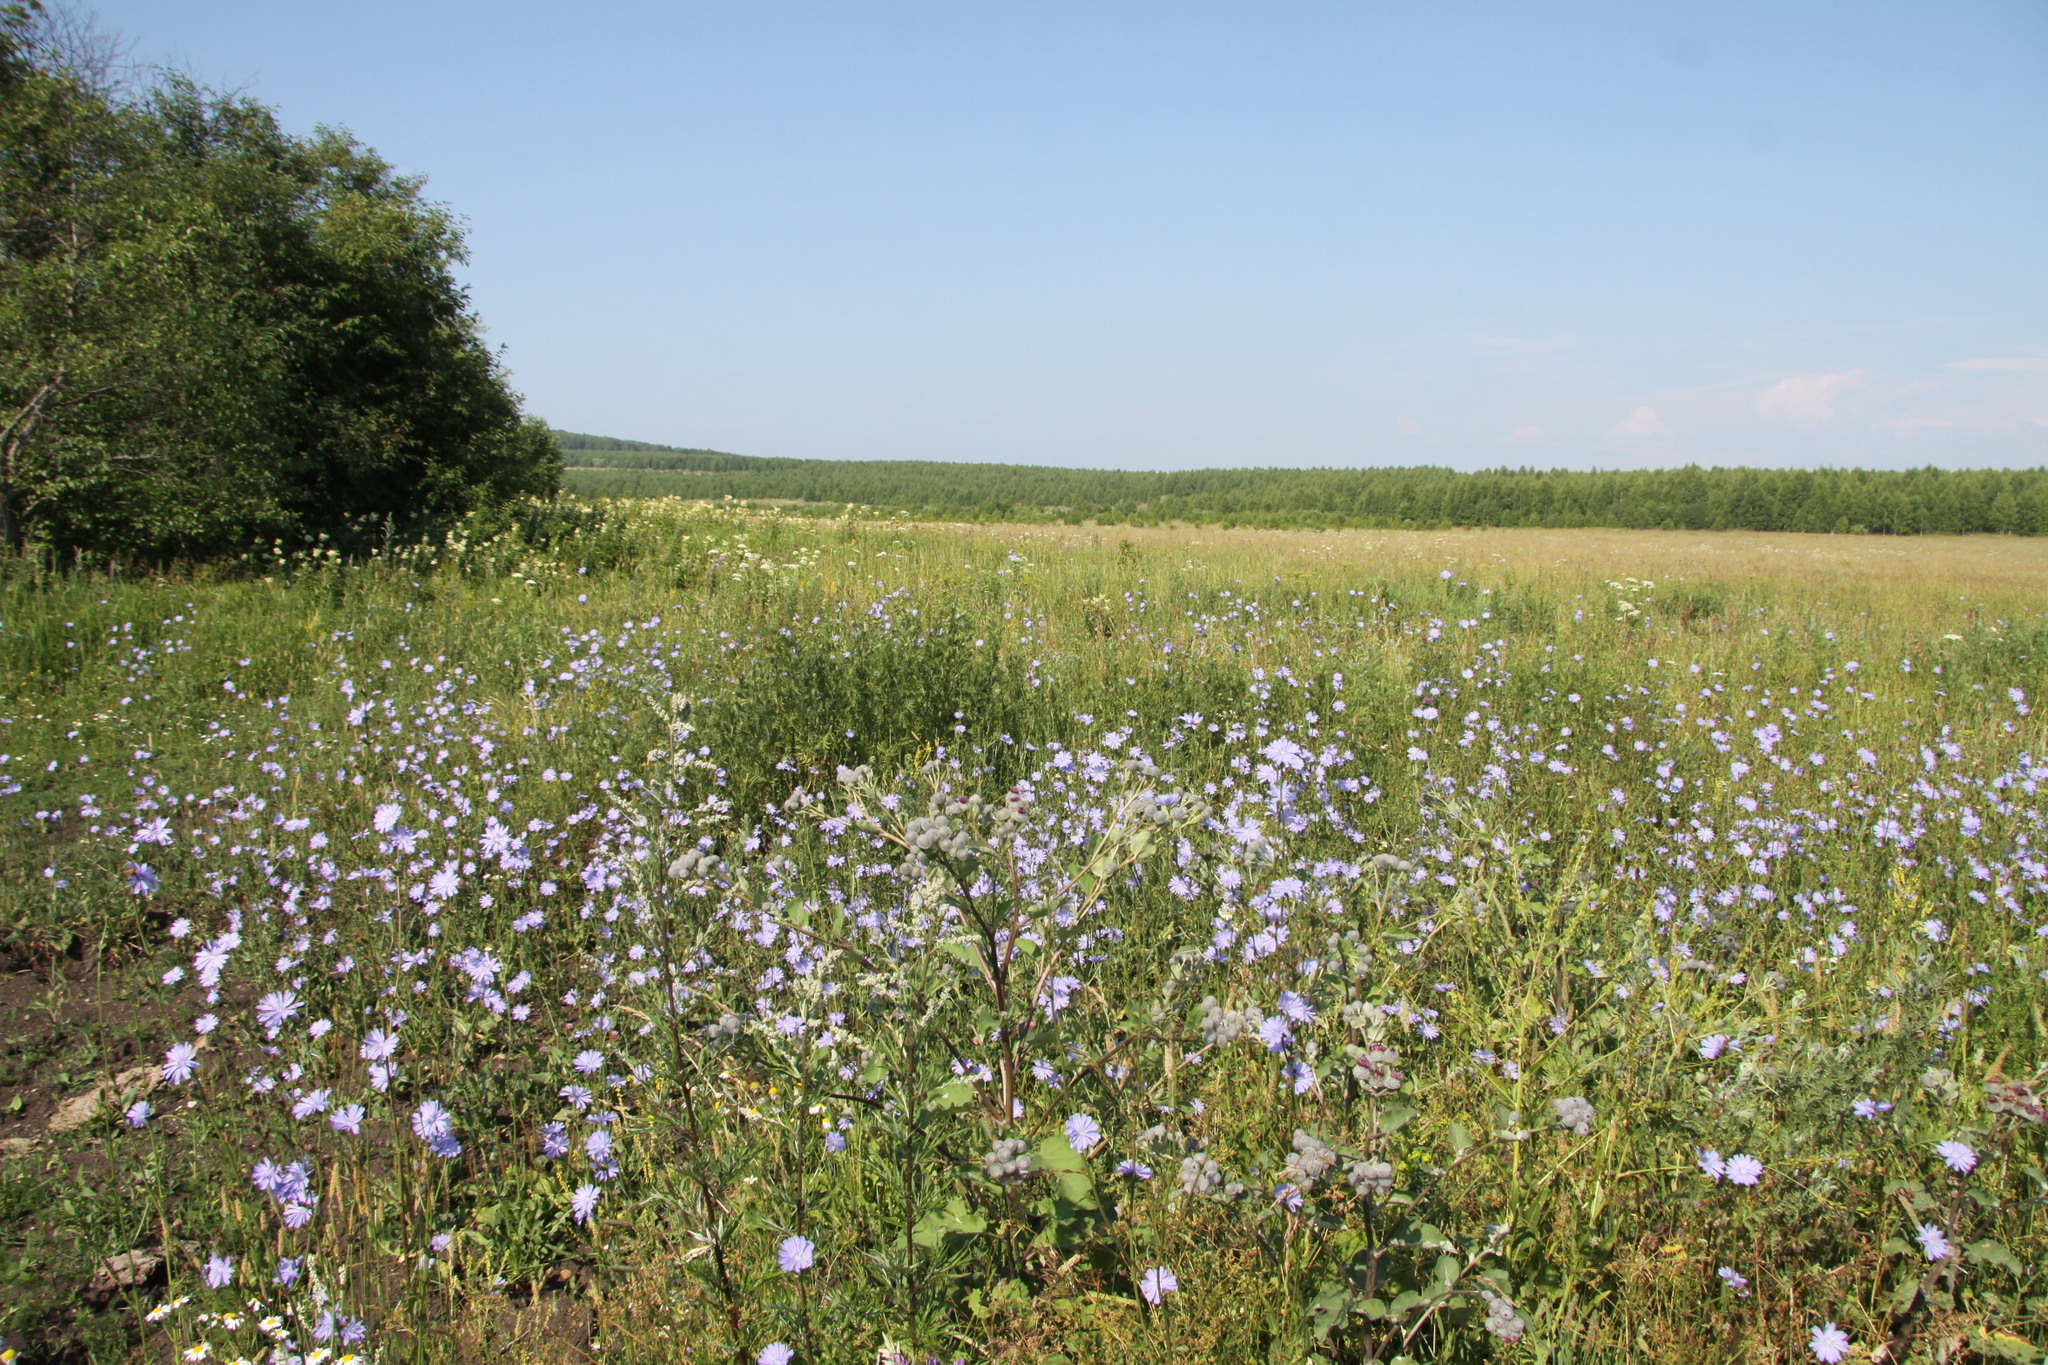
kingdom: Plantae
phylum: Tracheophyta
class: Magnoliopsida
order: Asterales
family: Asteraceae
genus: Cichorium
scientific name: Cichorium intybus
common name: Chicory
